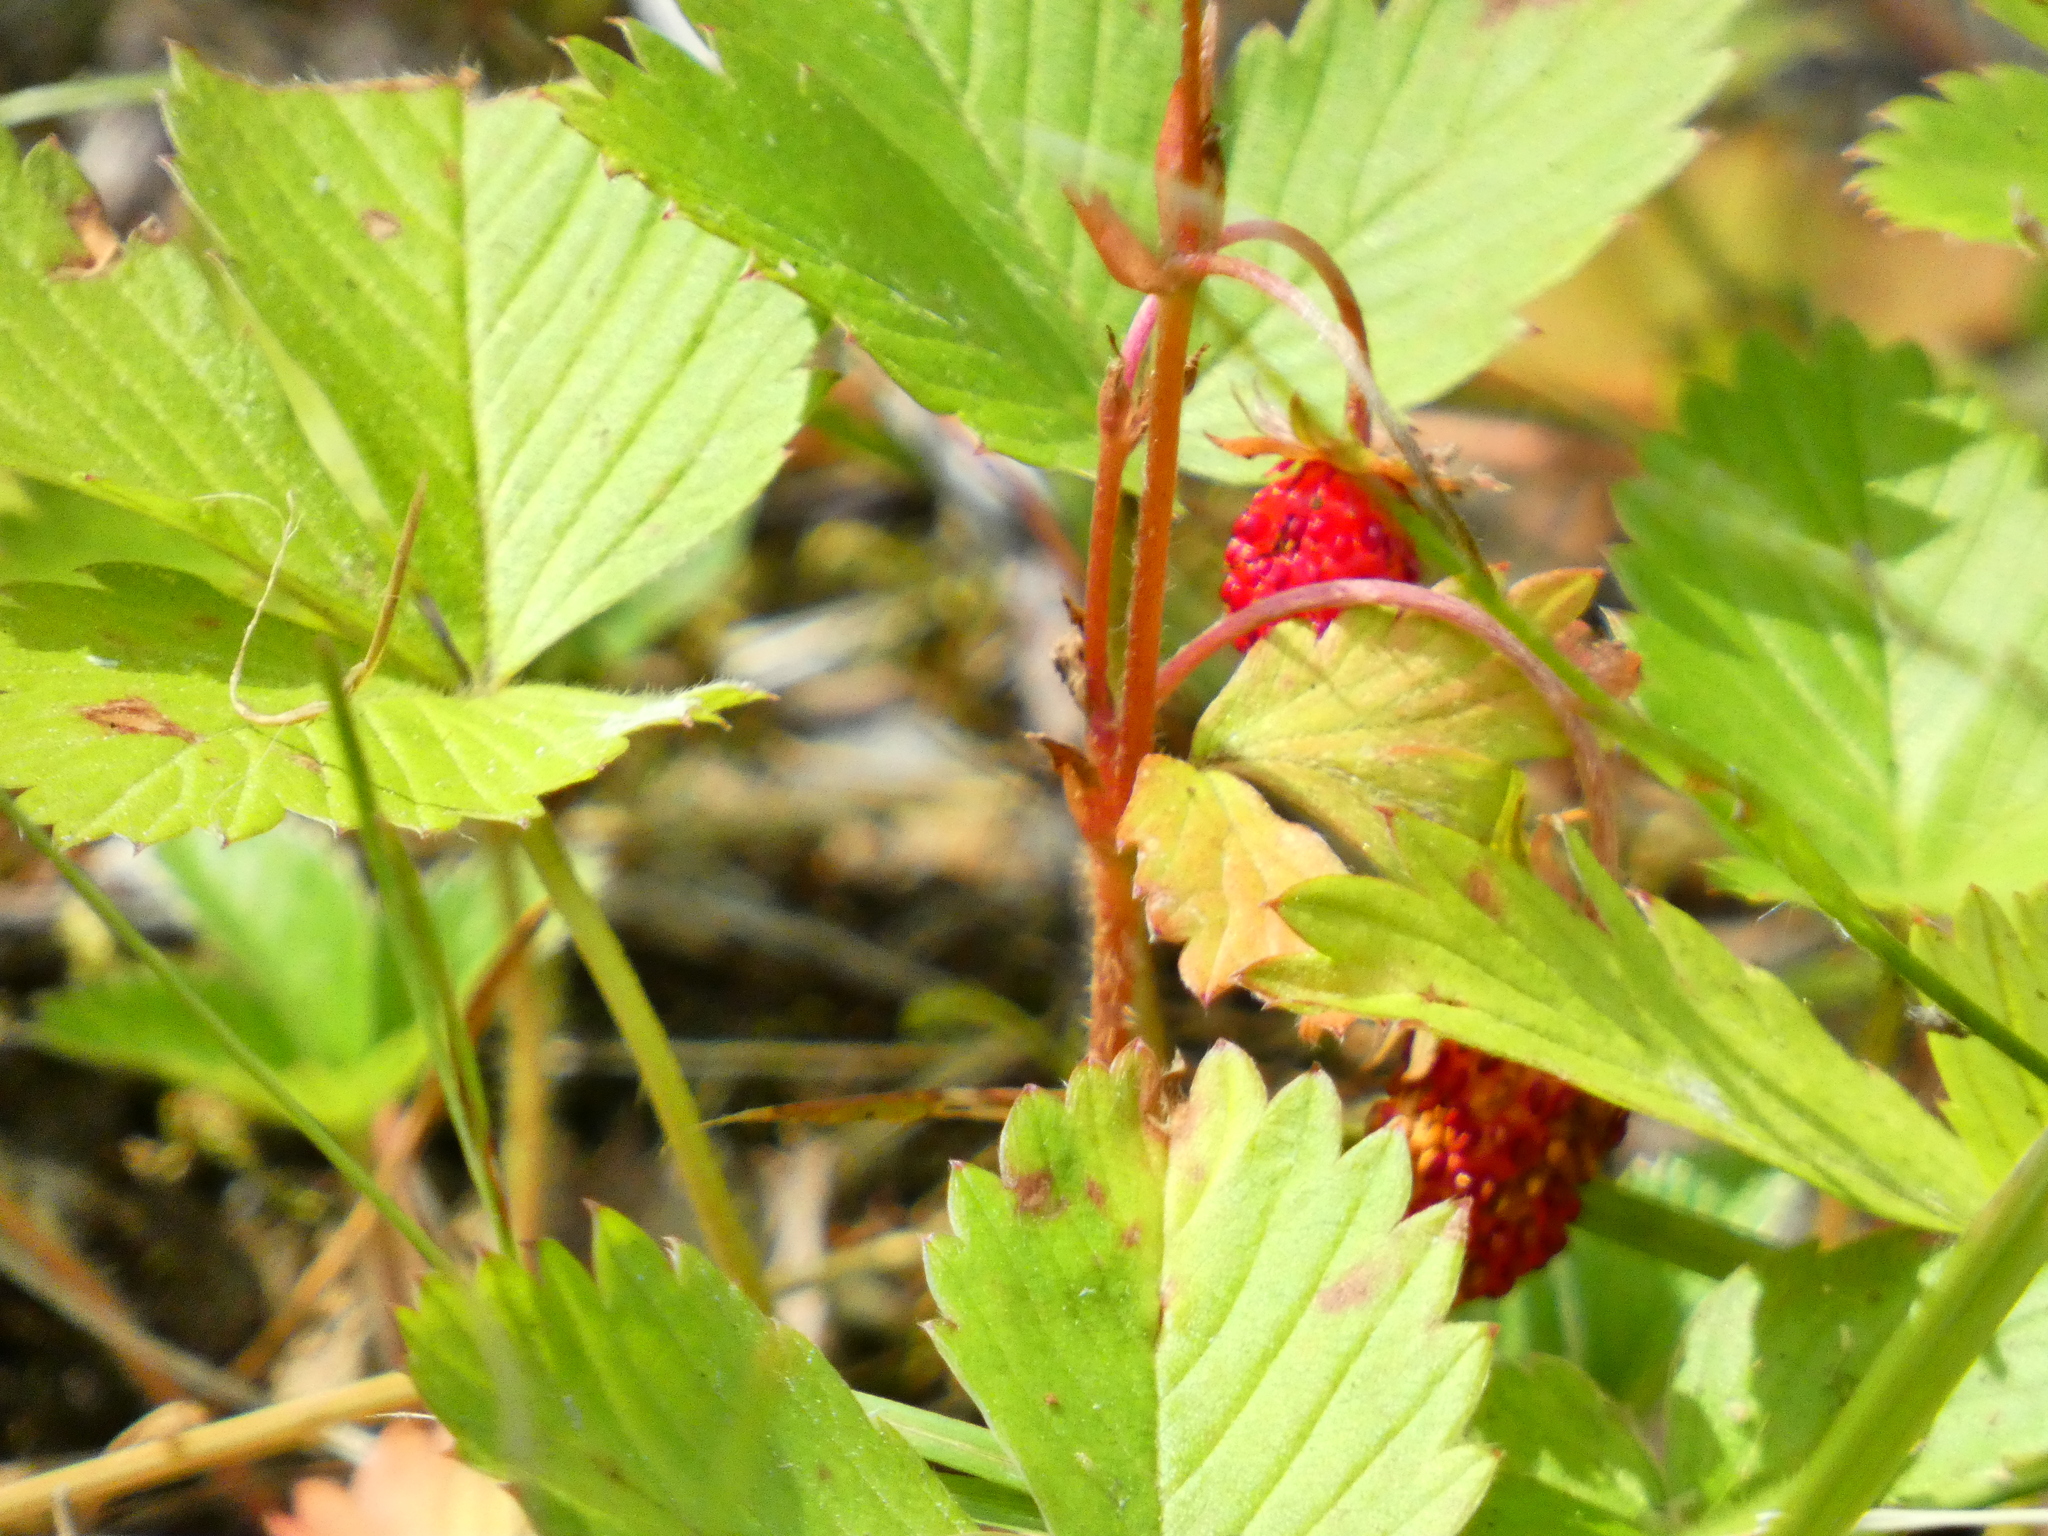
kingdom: Plantae
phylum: Tracheophyta
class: Magnoliopsida
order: Rosales
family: Rosaceae
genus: Fragaria
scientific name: Fragaria vesca
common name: Wild strawberry
